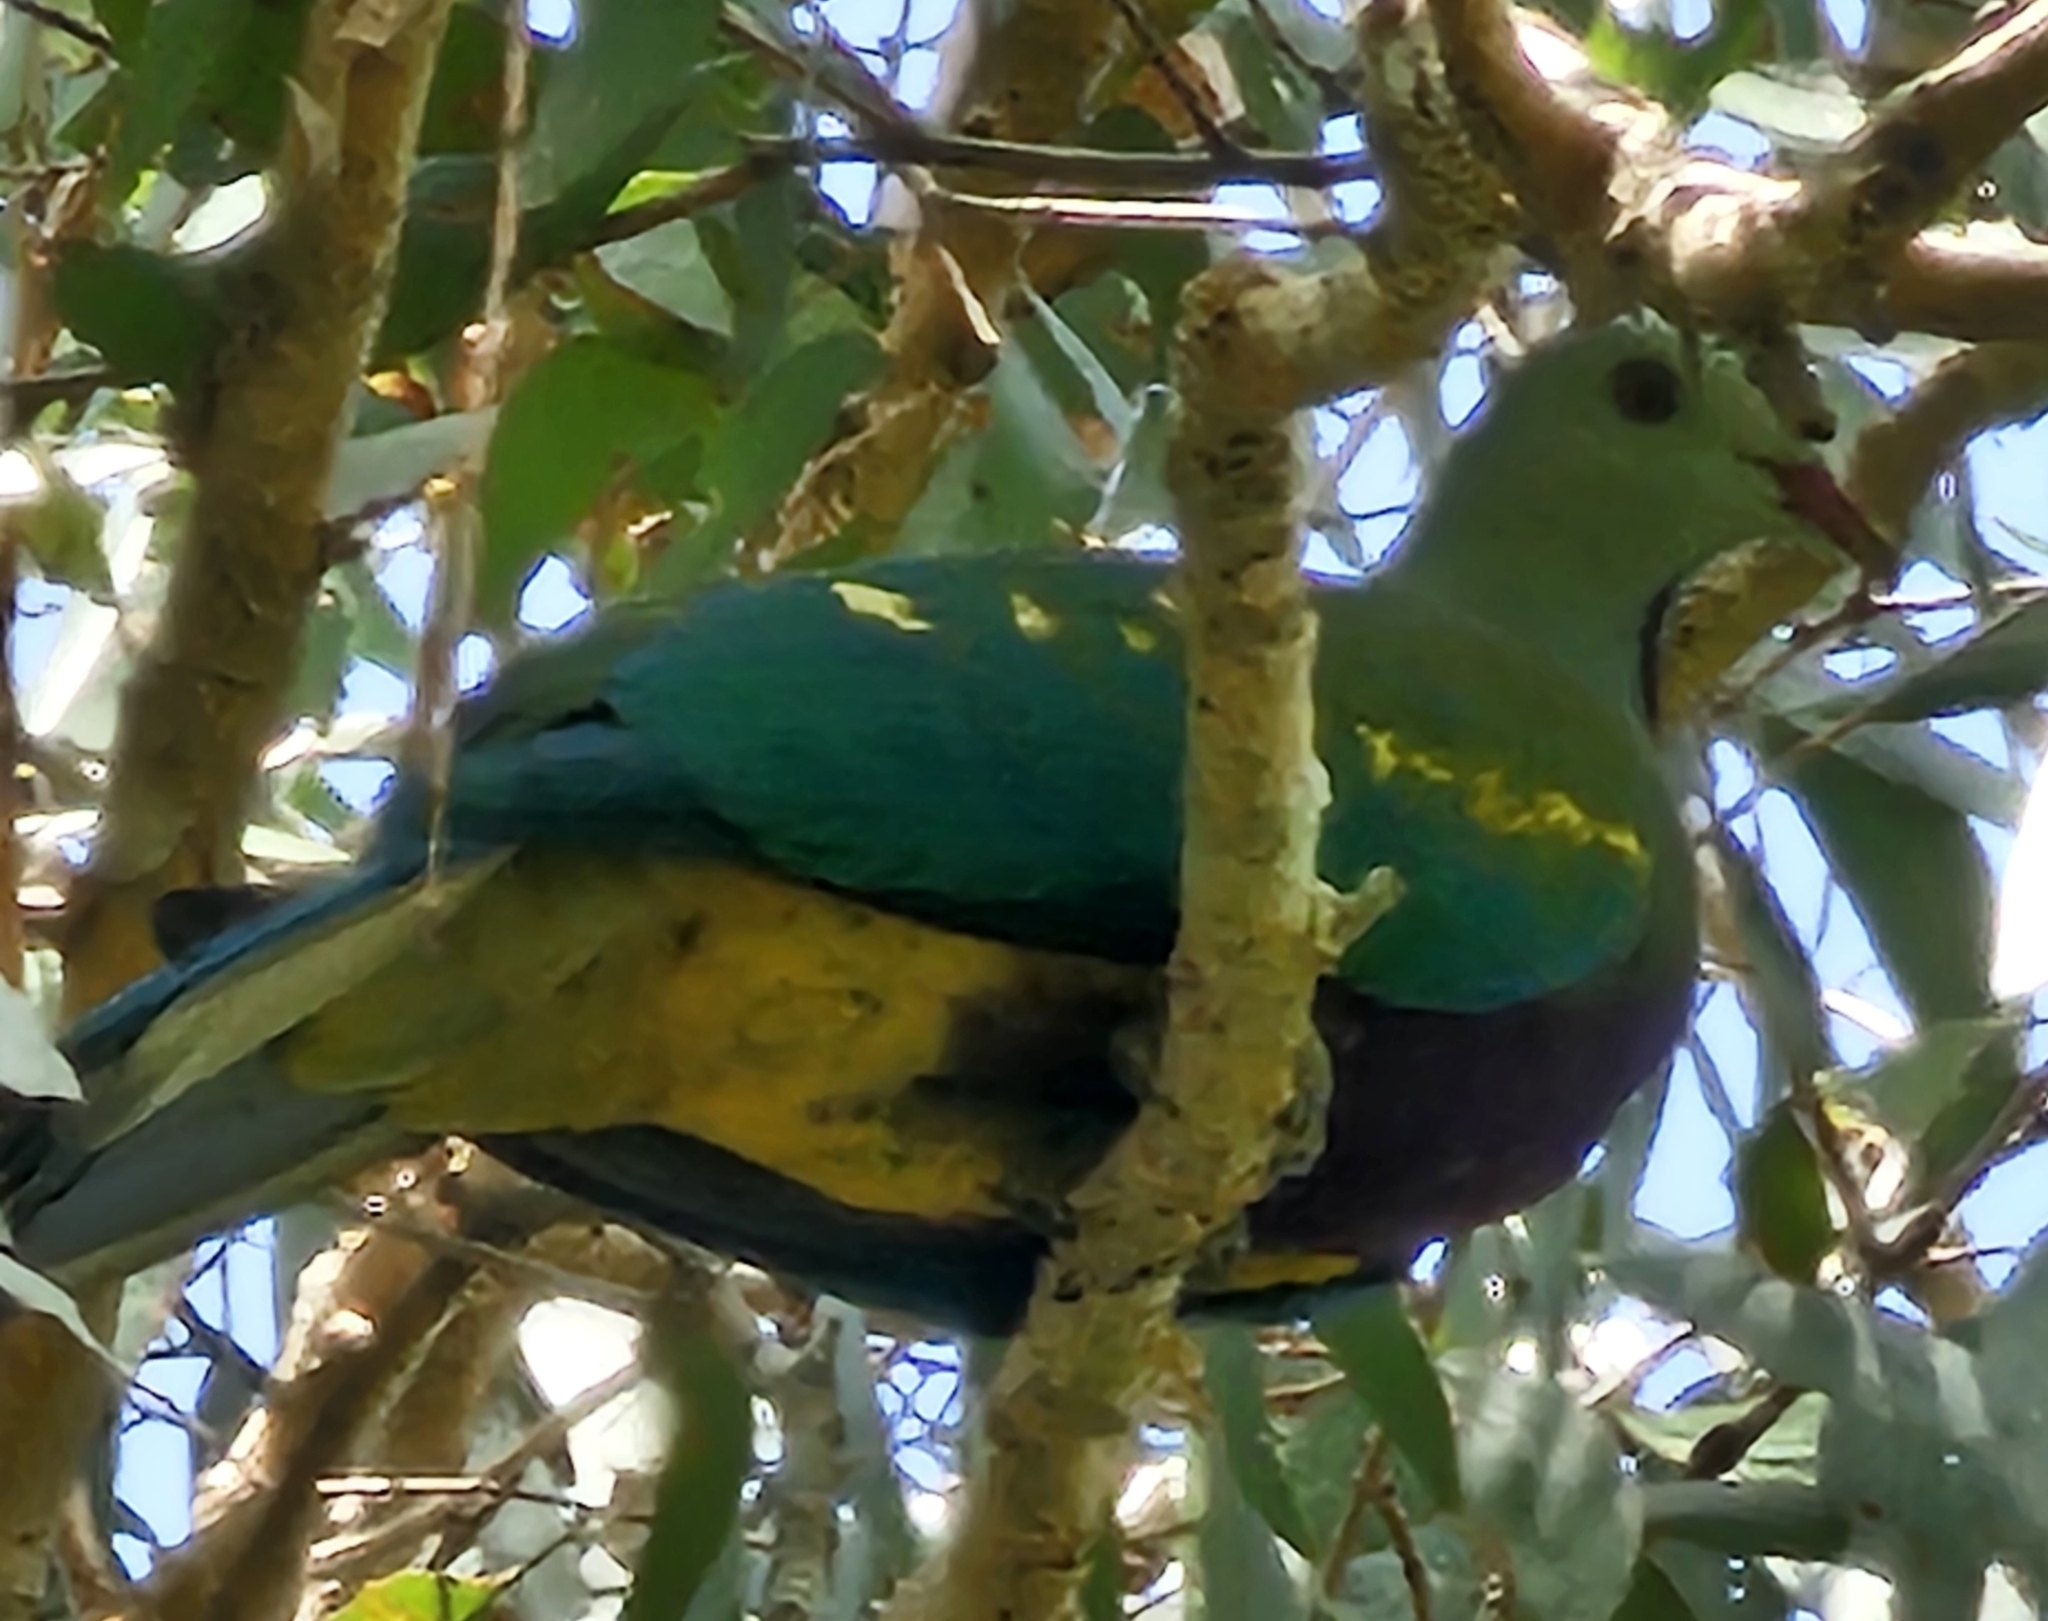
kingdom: Animalia
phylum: Chordata
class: Aves
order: Columbiformes
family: Columbidae
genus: Ptilinopus
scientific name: Ptilinopus magnificus
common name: Wompoo fruit dove
